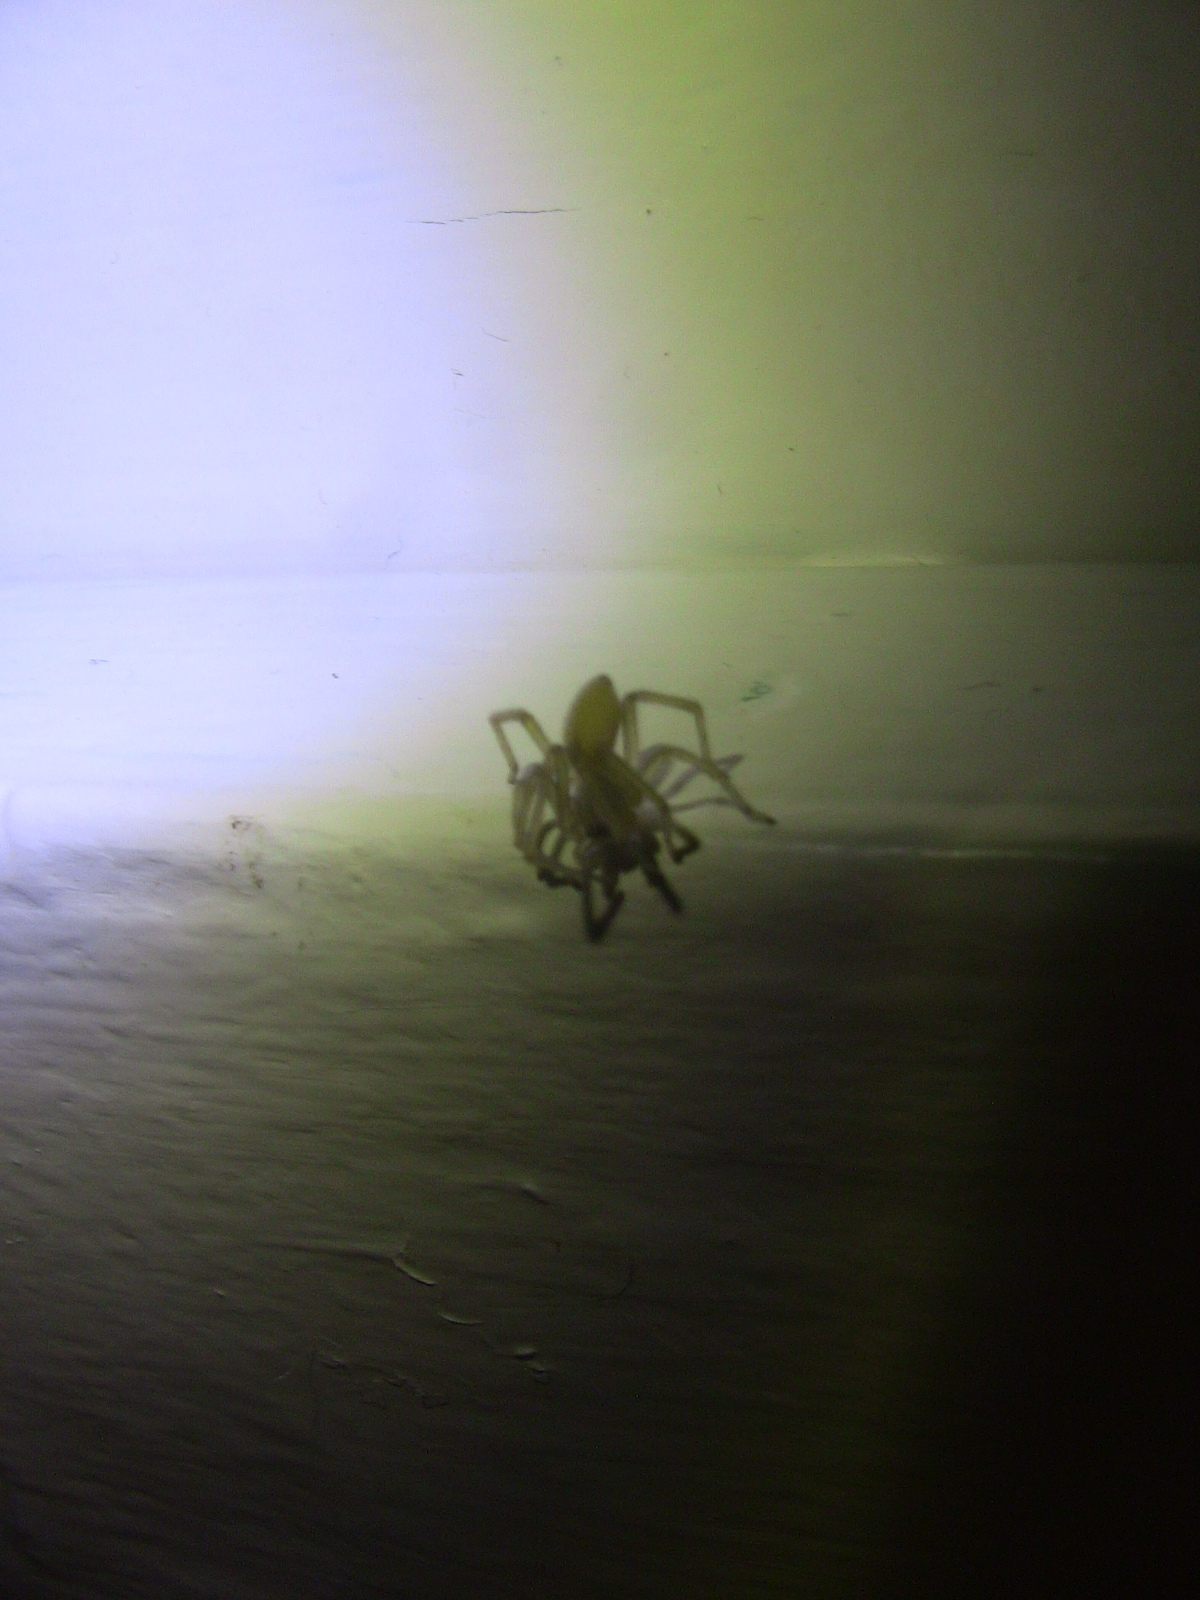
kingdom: Animalia
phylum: Arthropoda
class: Arachnida
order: Araneae
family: Cheiracanthiidae
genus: Cheiracanthium
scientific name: Cheiracanthium mildei
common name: Northern yellow sac spider
